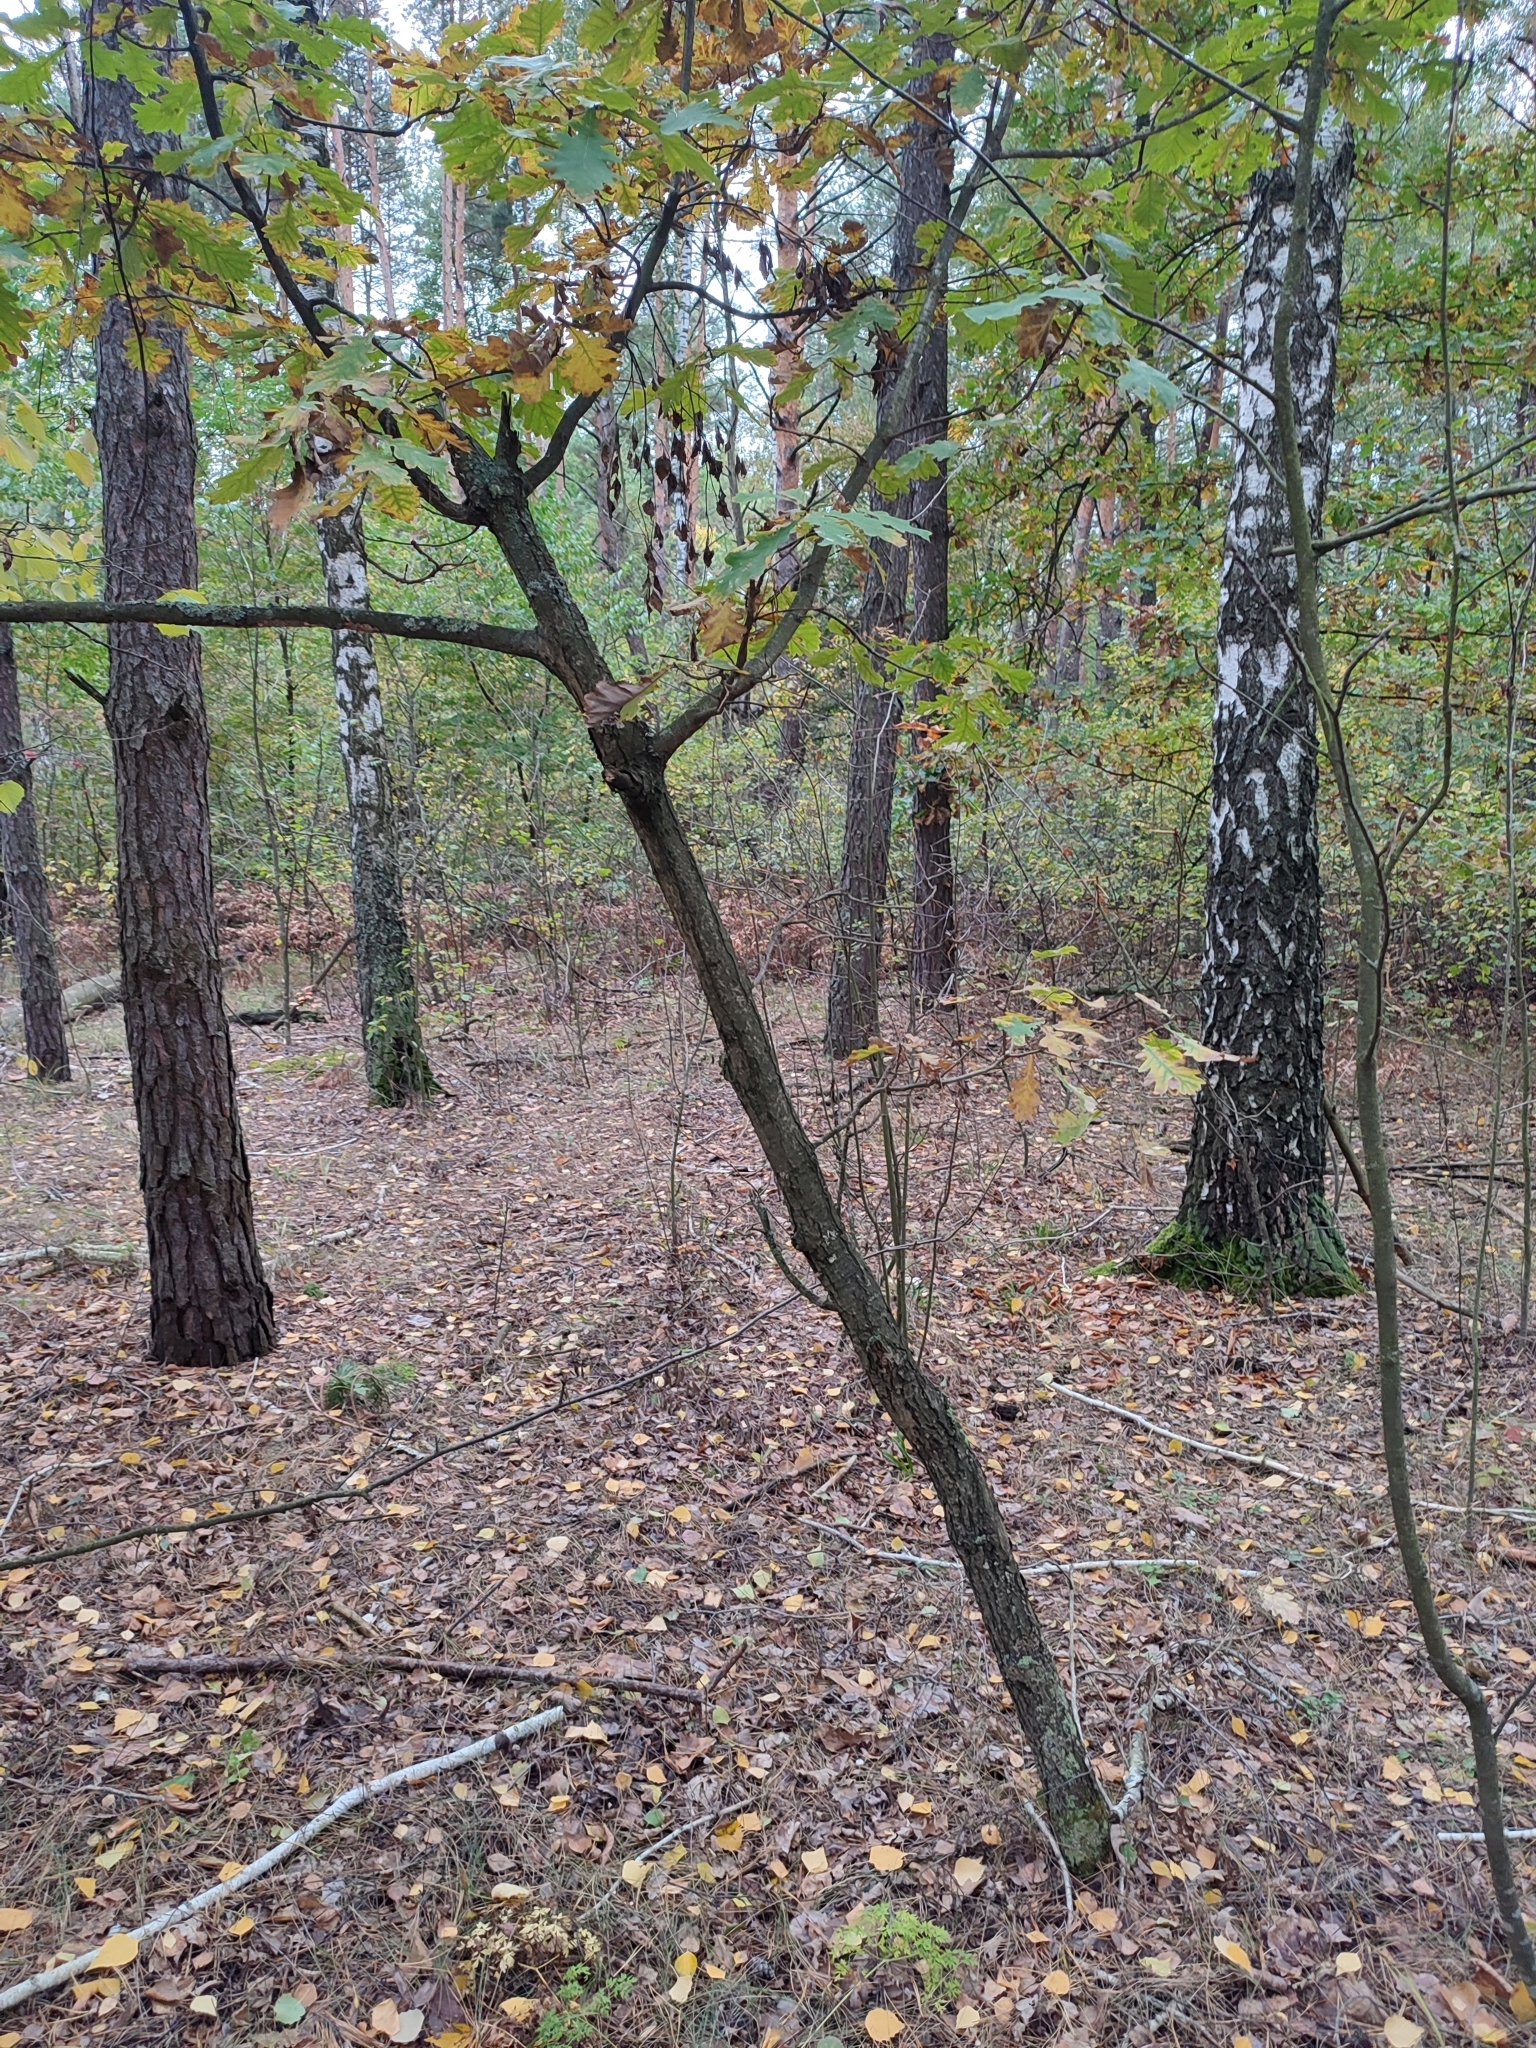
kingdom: Plantae
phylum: Tracheophyta
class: Magnoliopsida
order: Fagales
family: Fagaceae
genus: Quercus
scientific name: Quercus robur
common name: Pedunculate oak
